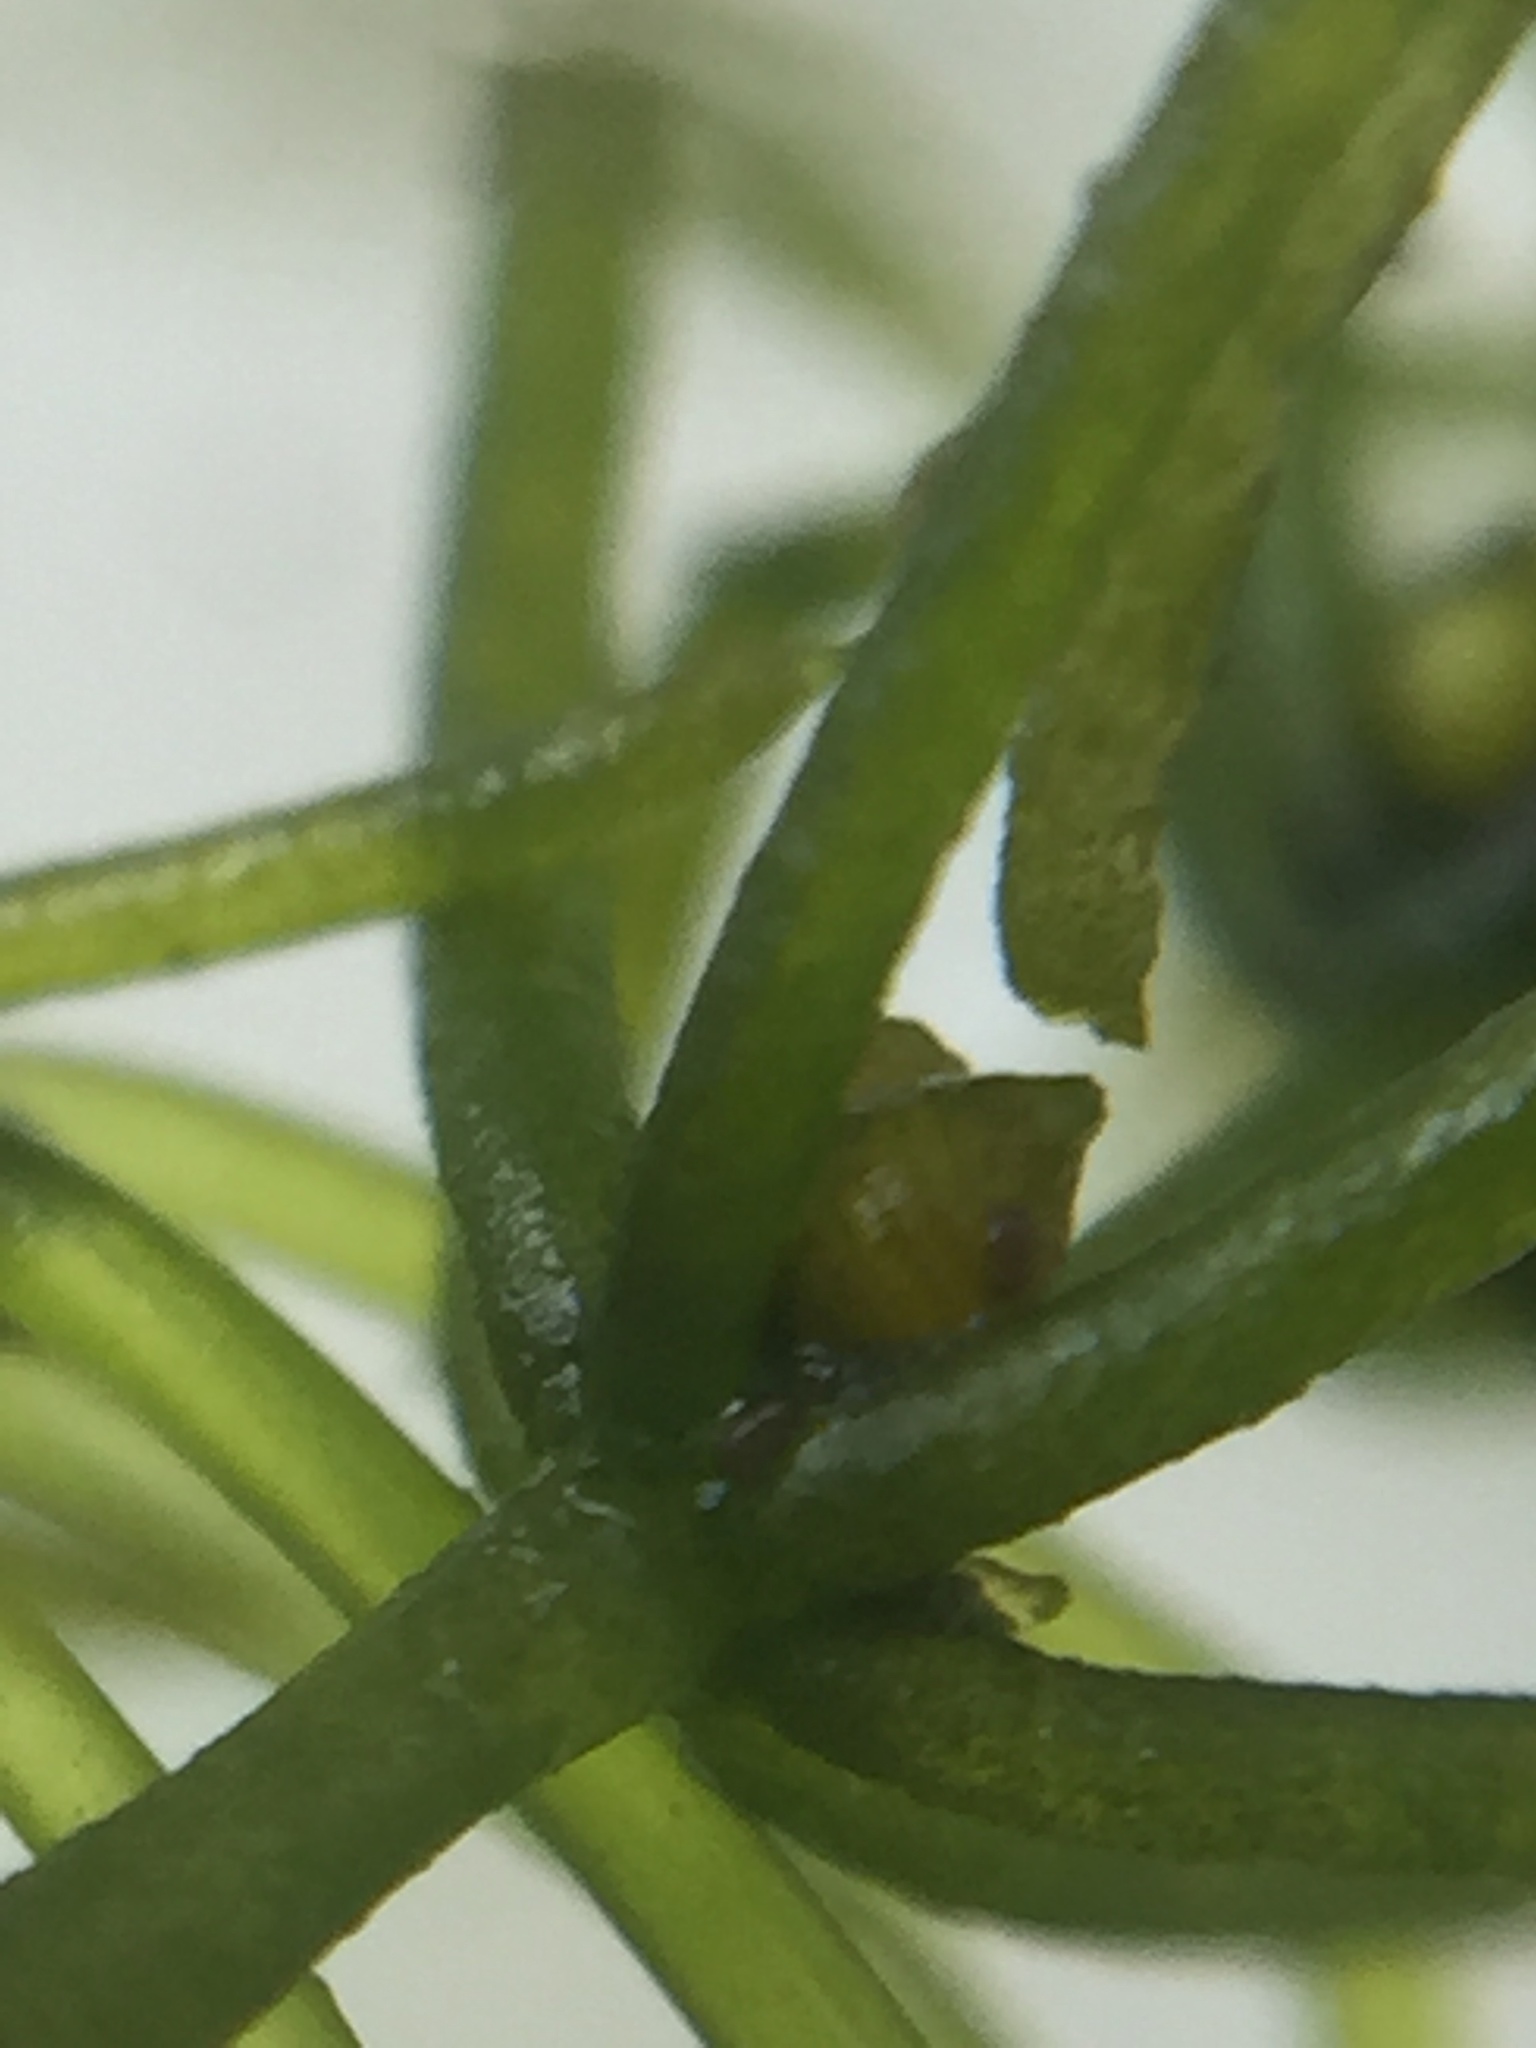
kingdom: Plantae
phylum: Charophyta
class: Charophyceae
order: Charales
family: Characeae
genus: Chara
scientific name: Chara corallina
